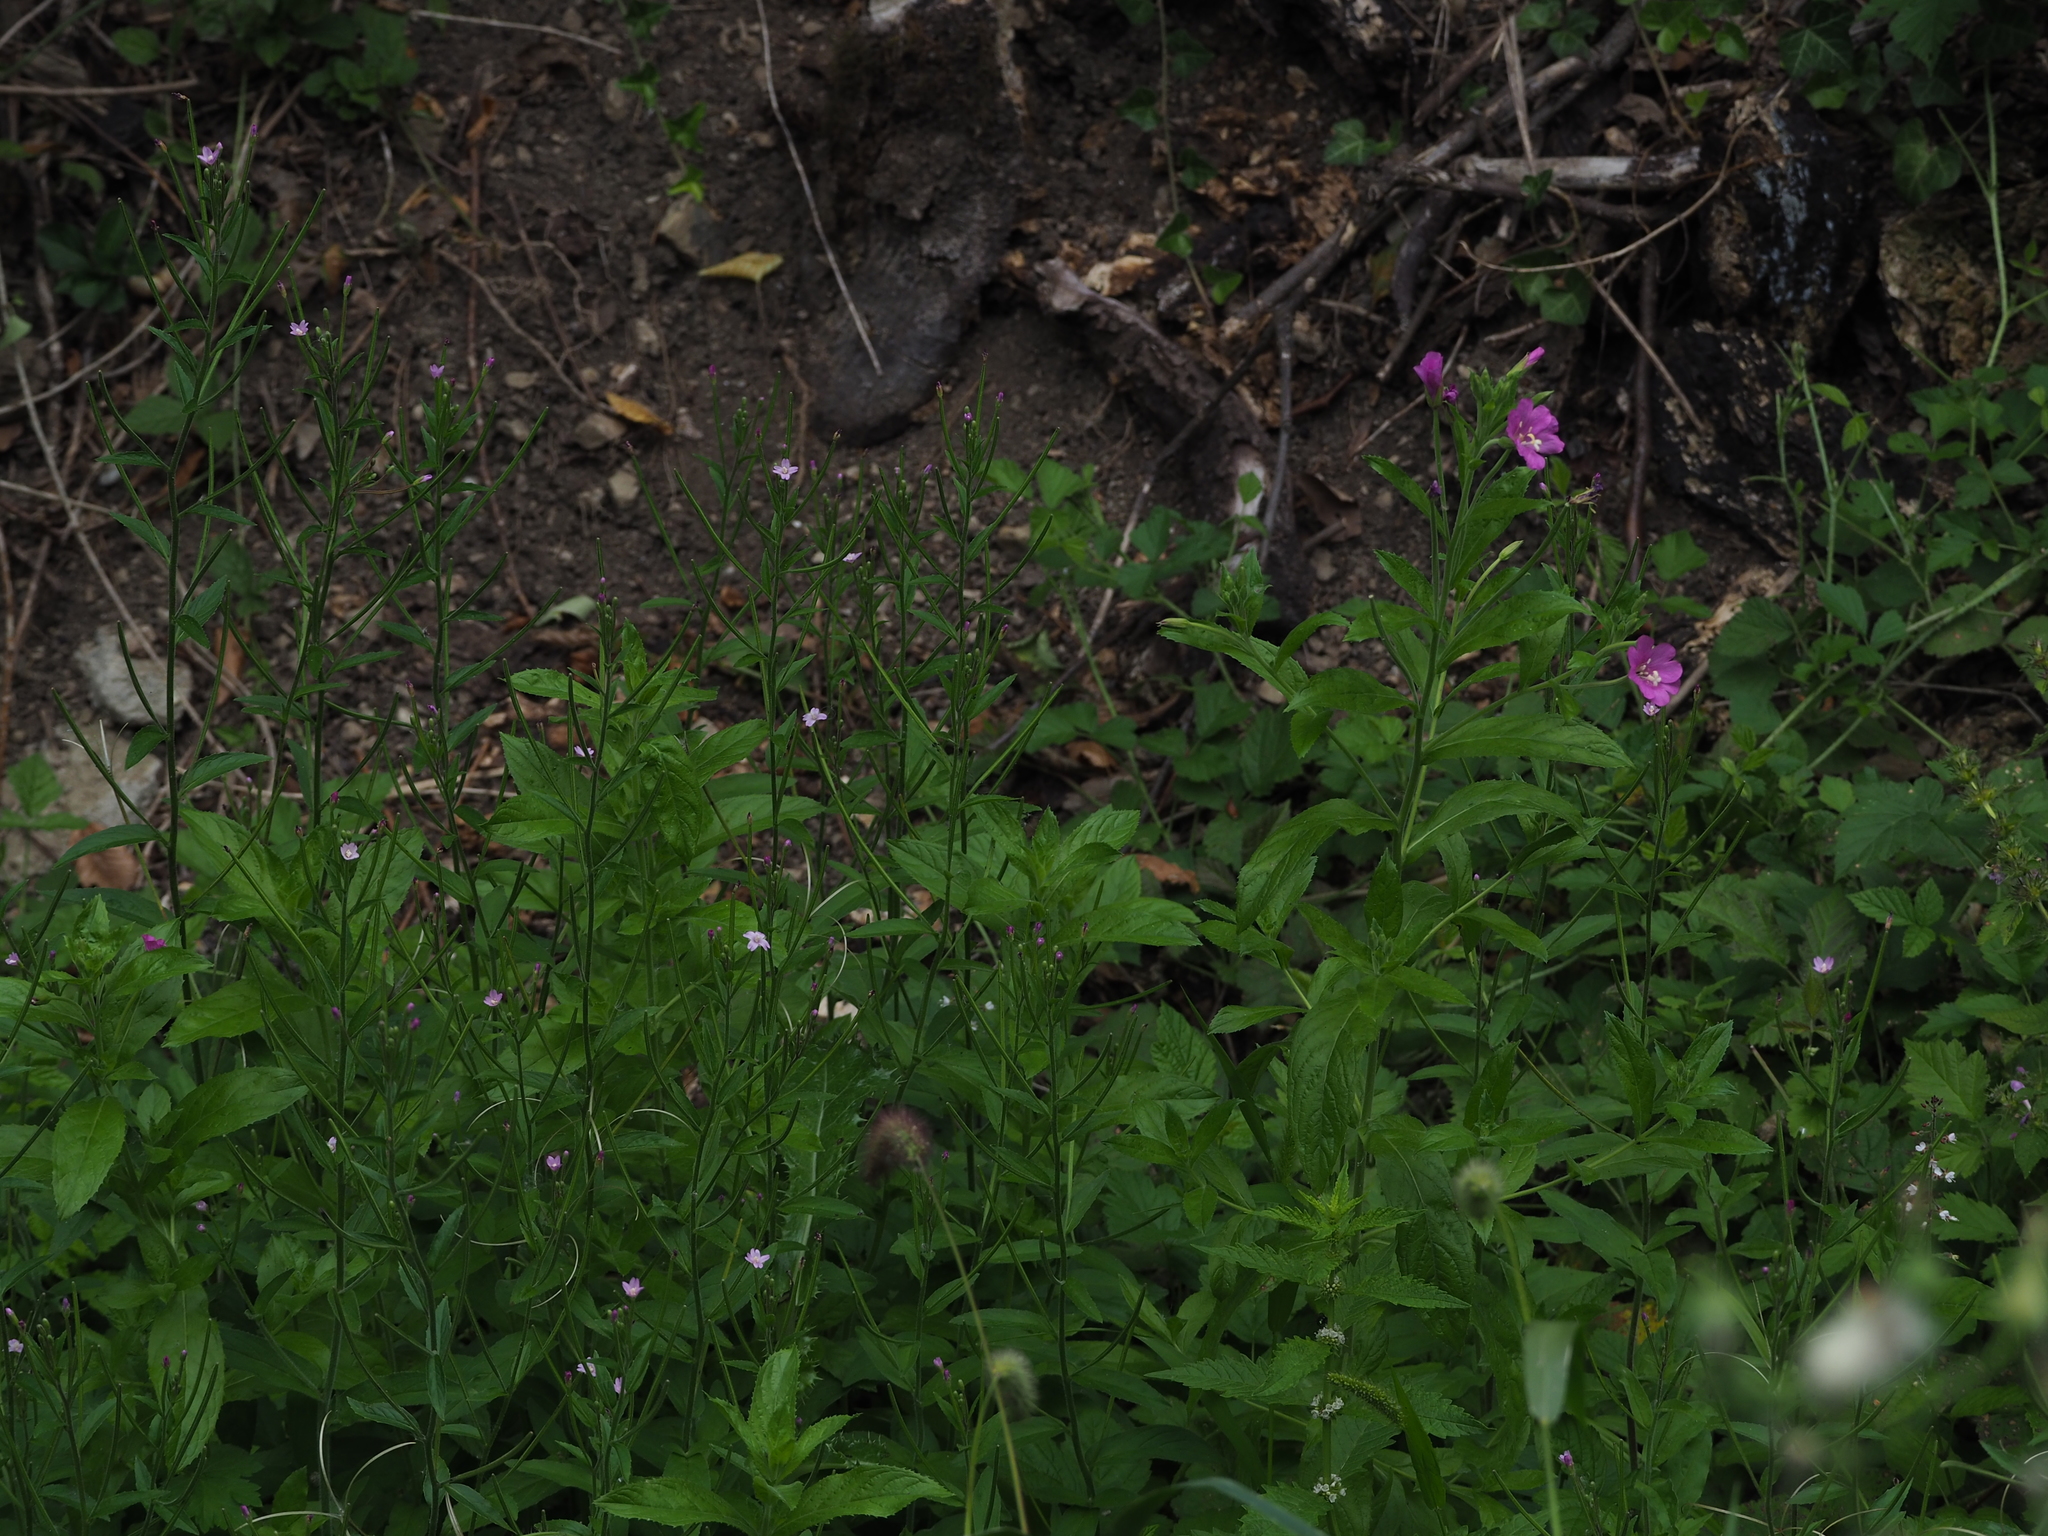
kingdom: Plantae
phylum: Tracheophyta
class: Magnoliopsida
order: Myrtales
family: Onagraceae
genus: Epilobium
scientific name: Epilobium hirsutum
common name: Great willowherb
